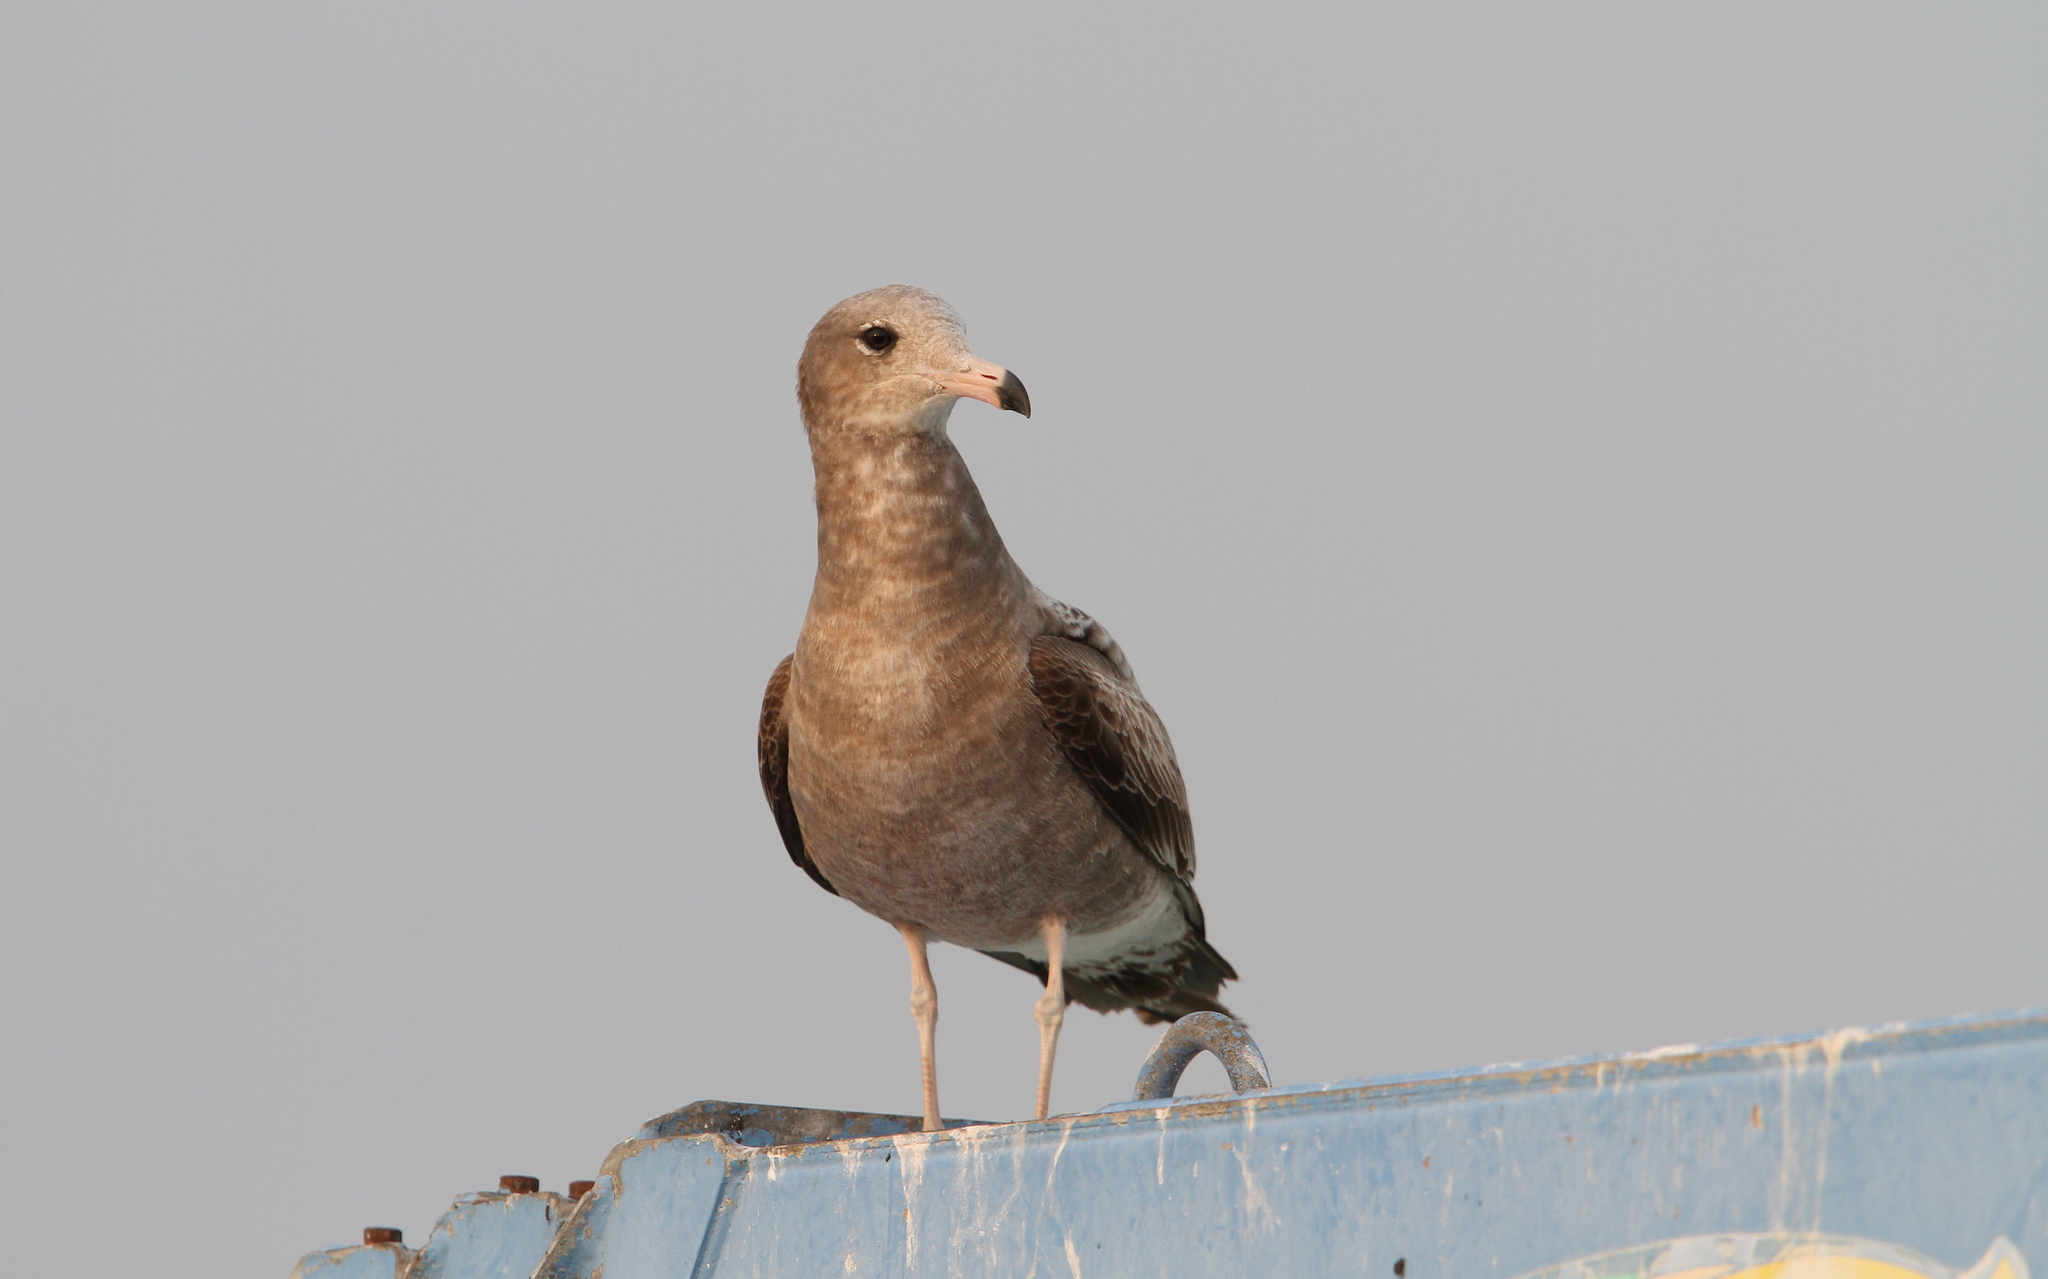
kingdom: Animalia
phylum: Chordata
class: Aves
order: Charadriiformes
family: Laridae
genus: Larus
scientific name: Larus crassirostris
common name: Black-tailed gull
